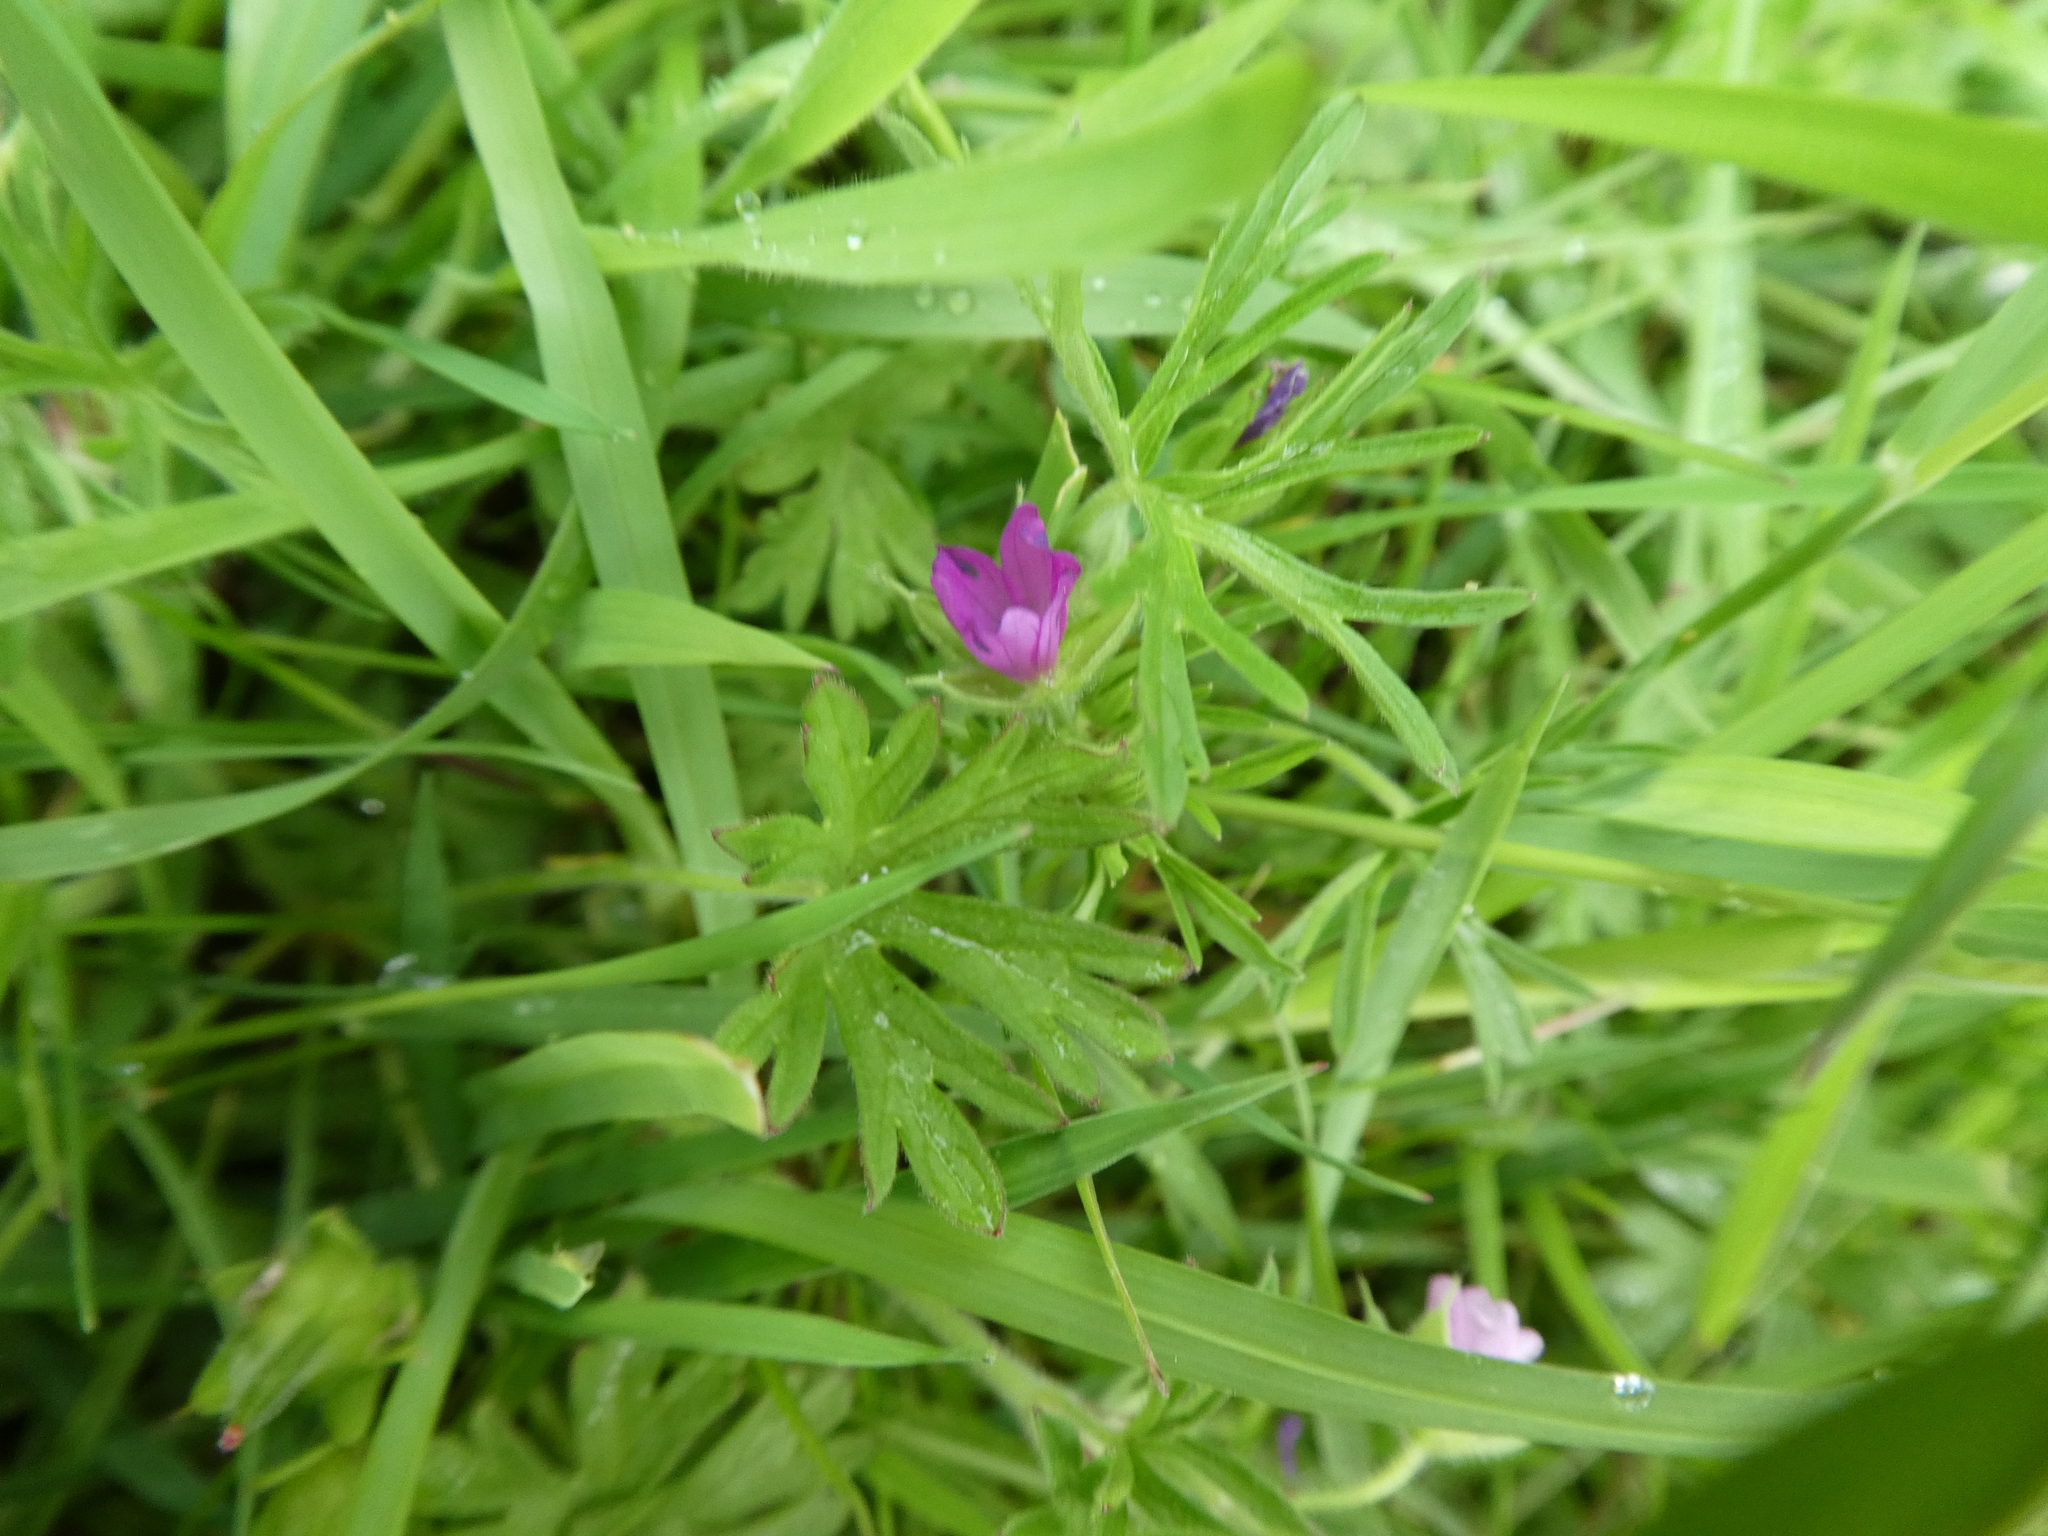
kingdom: Plantae
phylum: Tracheophyta
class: Magnoliopsida
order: Geraniales
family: Geraniaceae
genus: Geranium
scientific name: Geranium dissectum
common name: Cut-leaved crane's-bill
